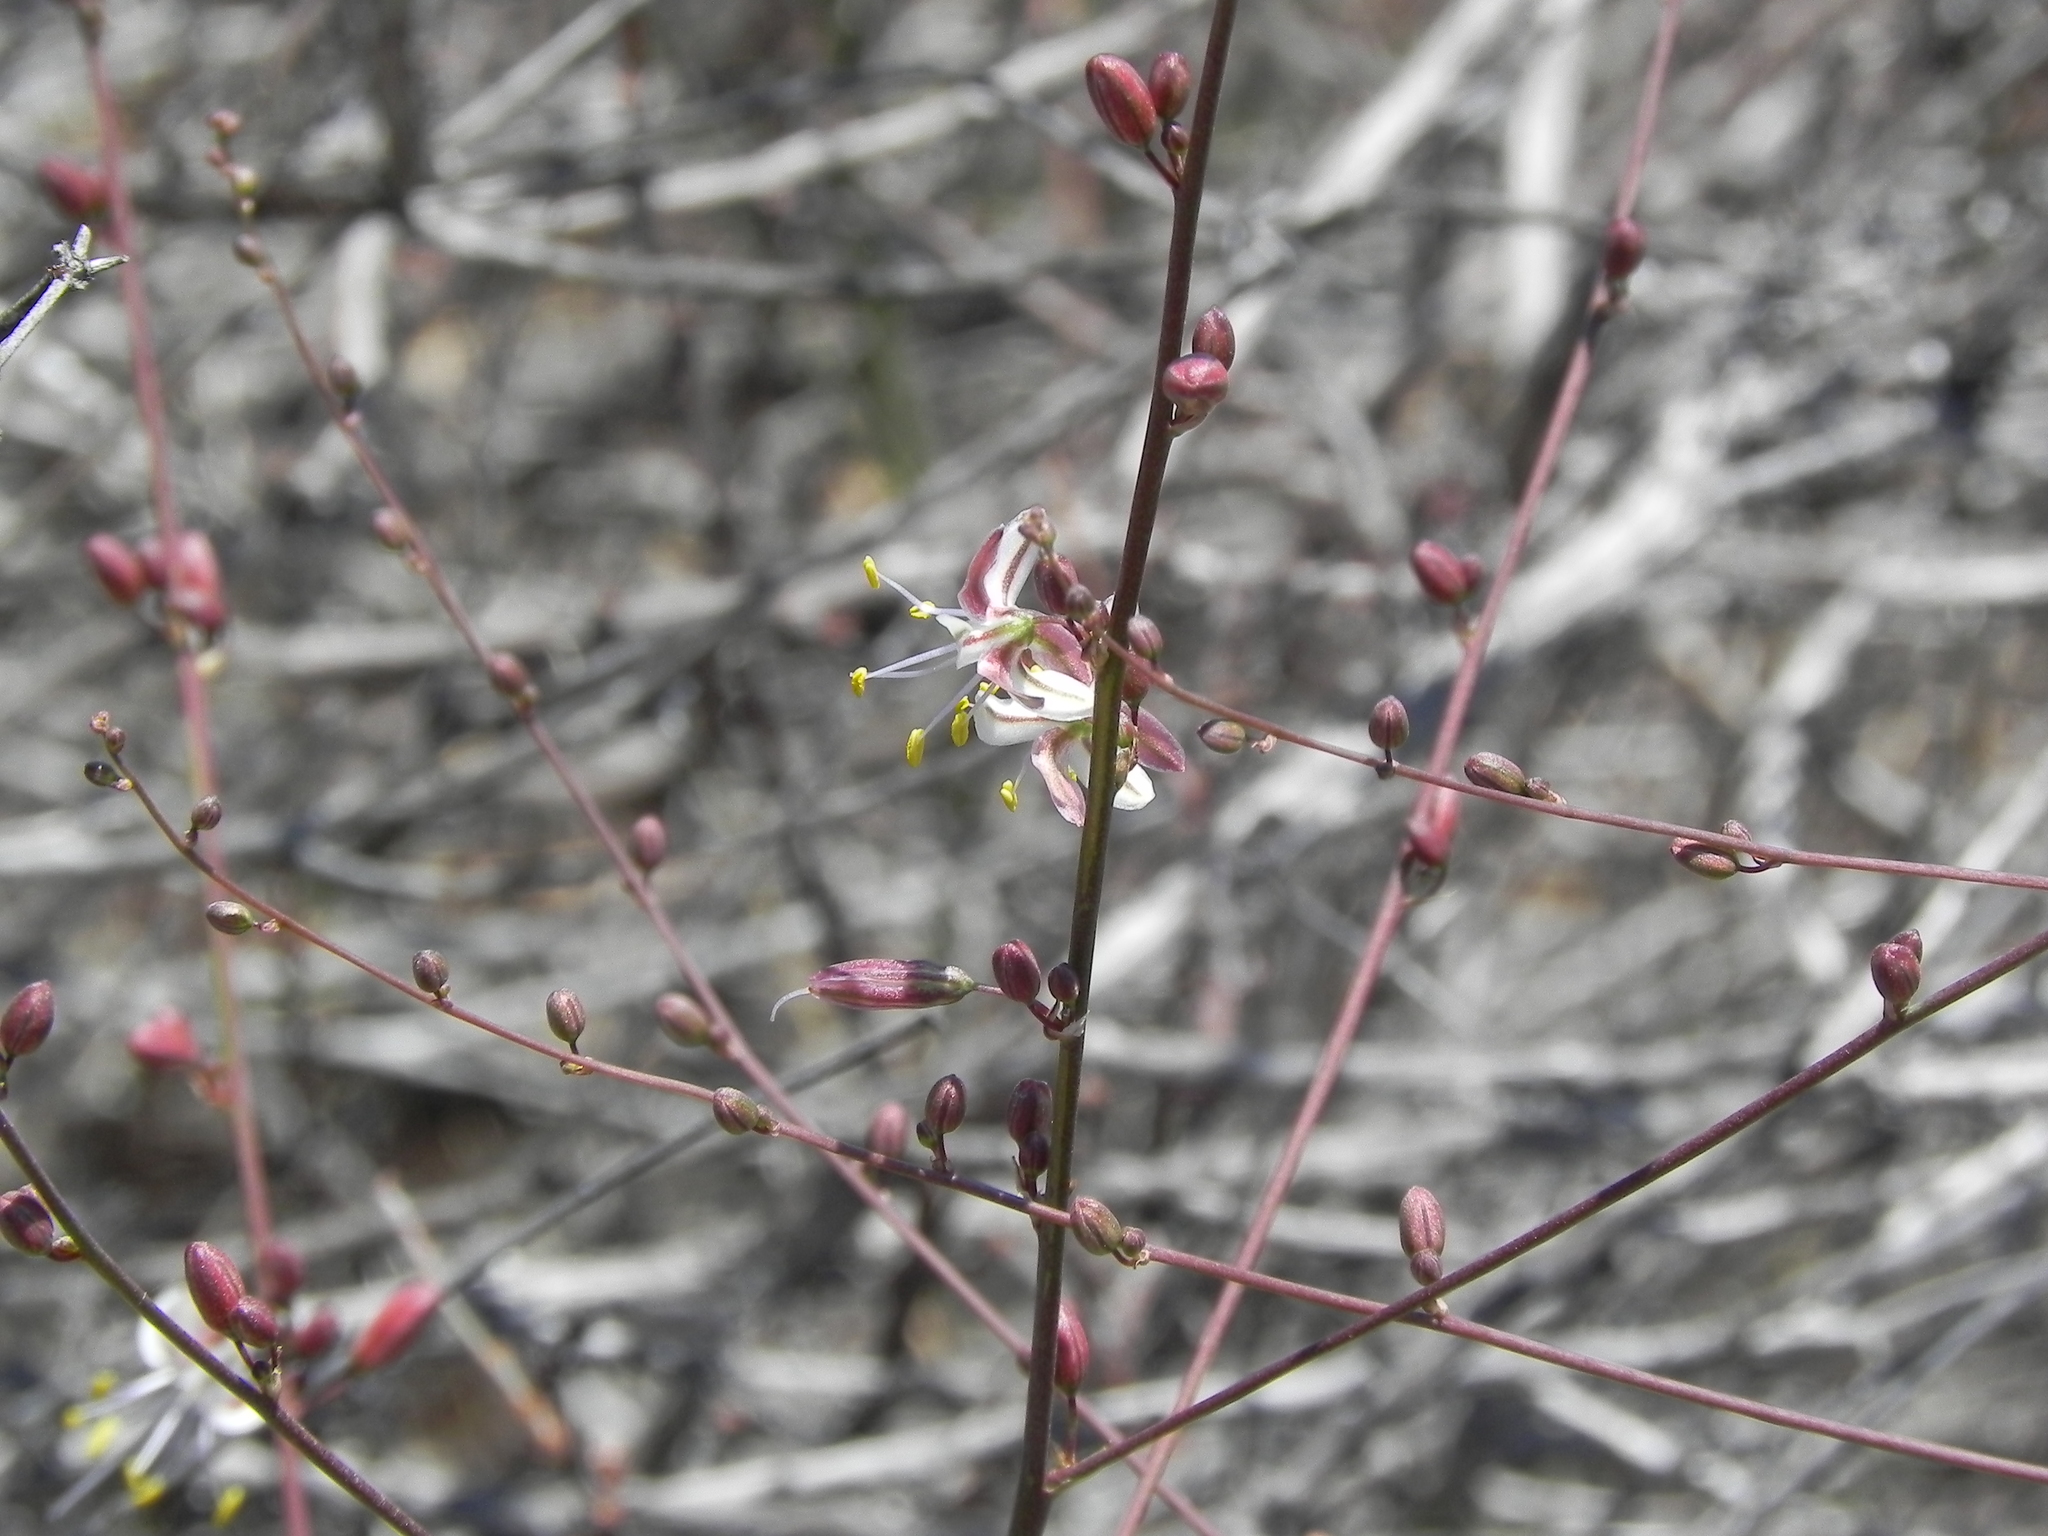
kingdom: Plantae
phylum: Tracheophyta
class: Liliopsida
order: Asparagales
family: Asparagaceae
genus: Hooveria
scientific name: Hooveria parviflora
